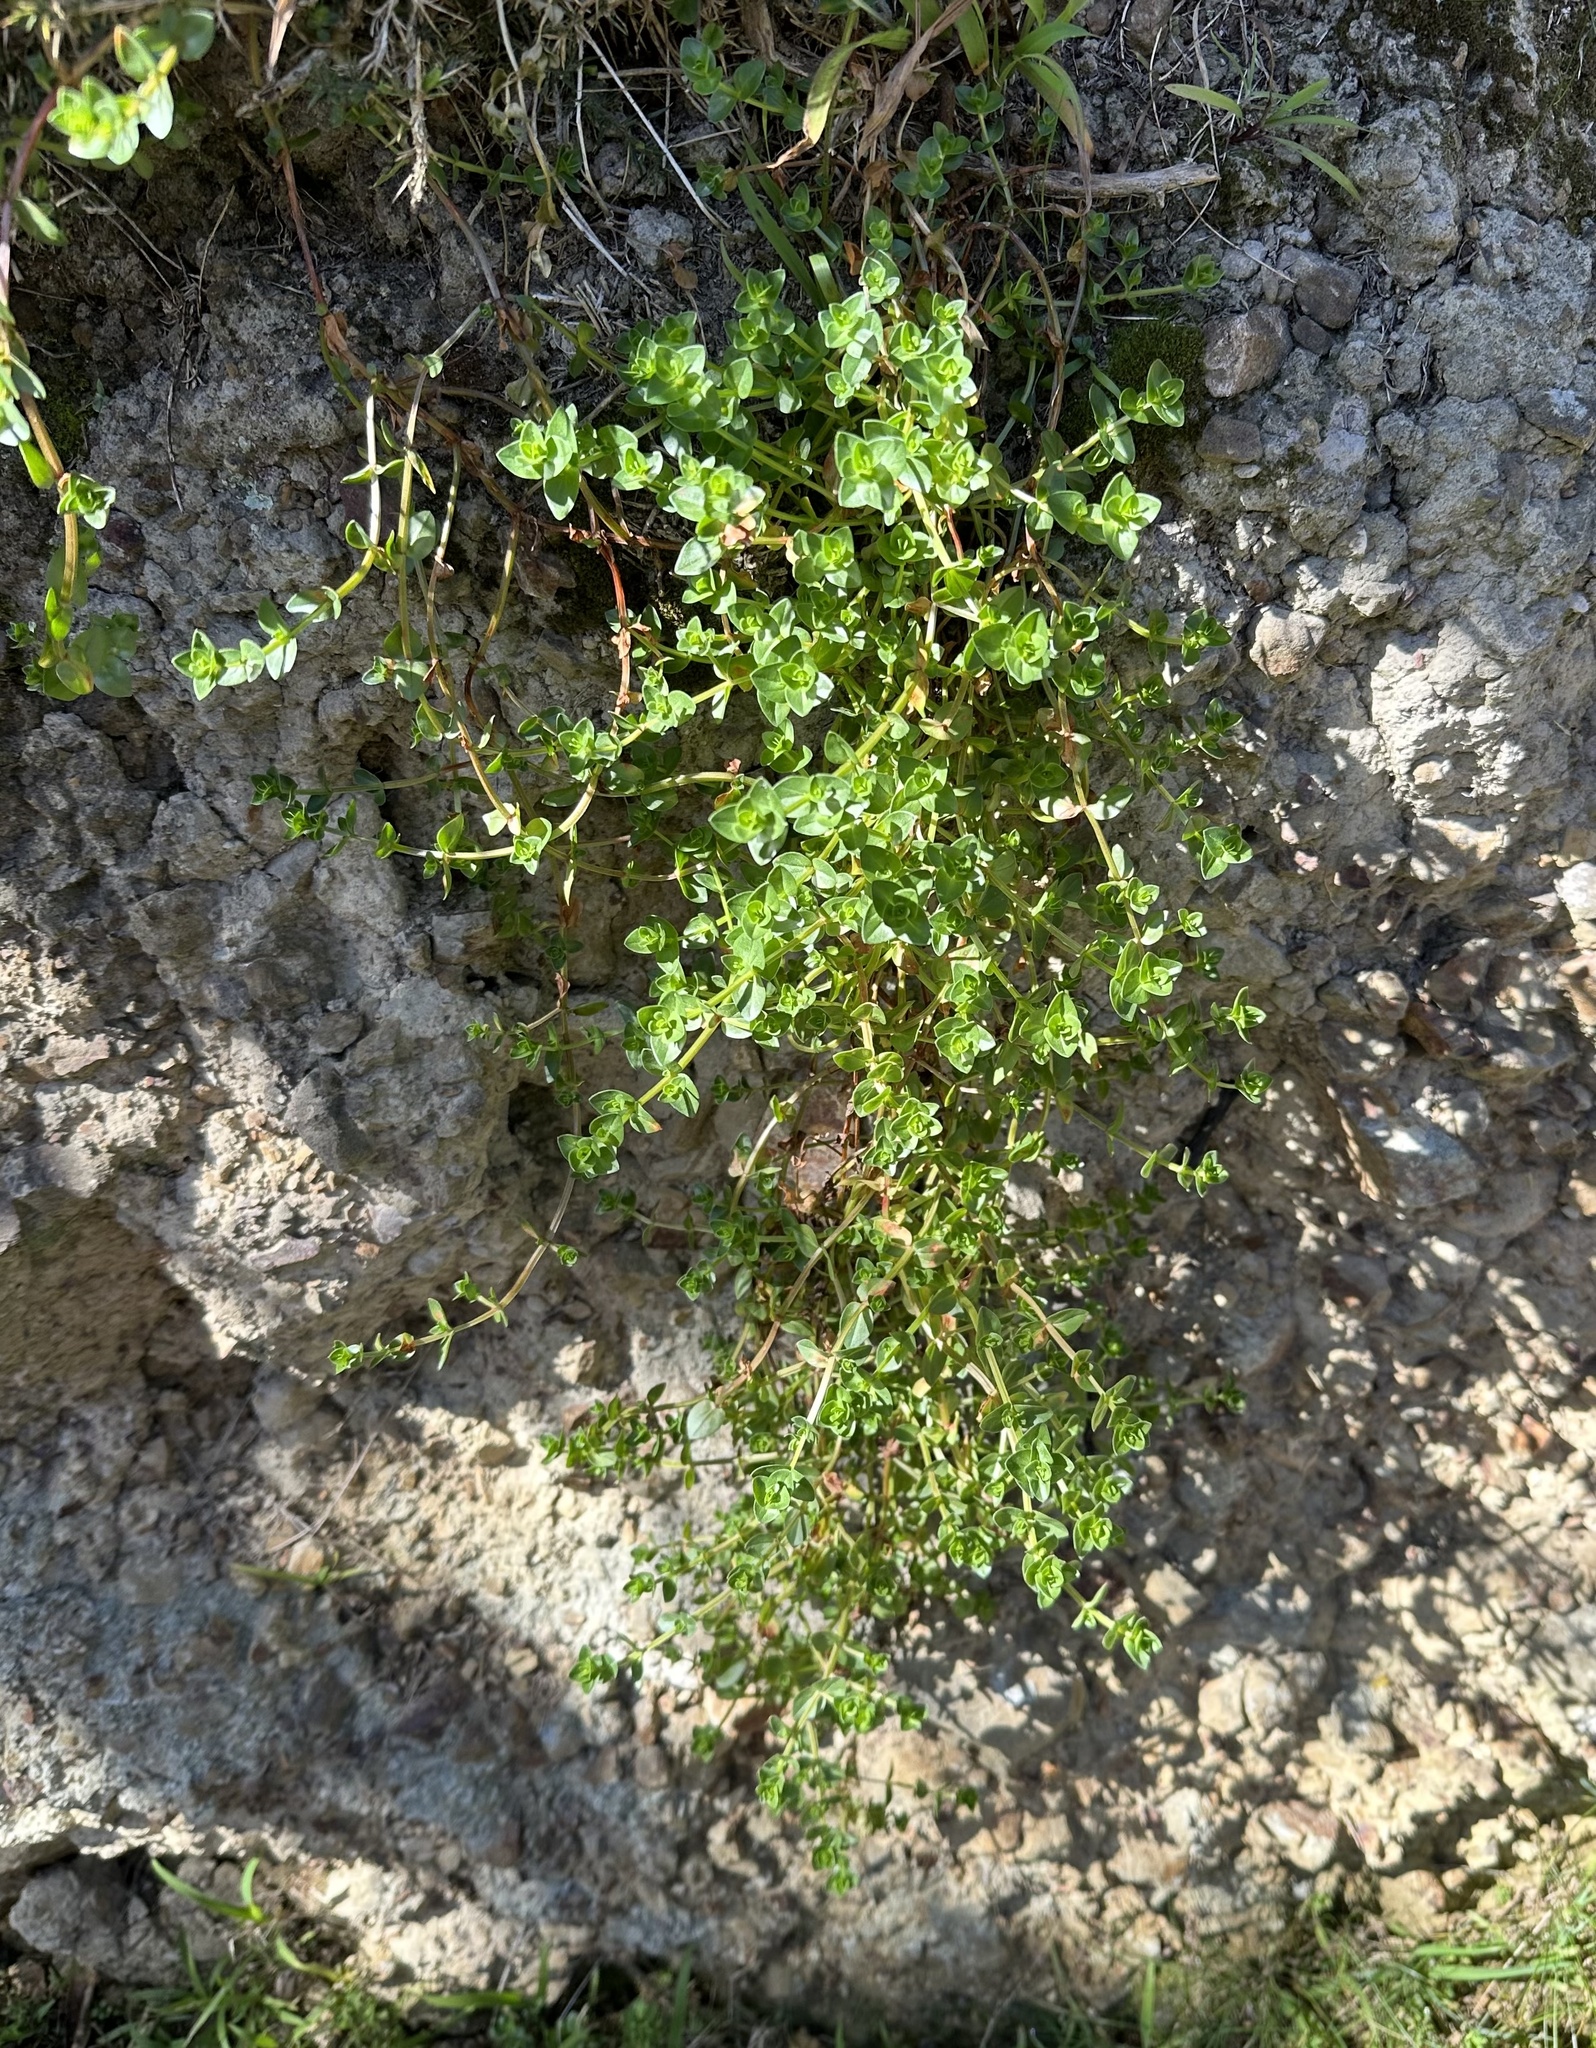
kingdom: Plantae
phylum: Tracheophyta
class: Magnoliopsida
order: Ericales
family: Primulaceae
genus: Lysimachia
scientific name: Lysimachia arvensis
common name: Scarlet pimpernel
